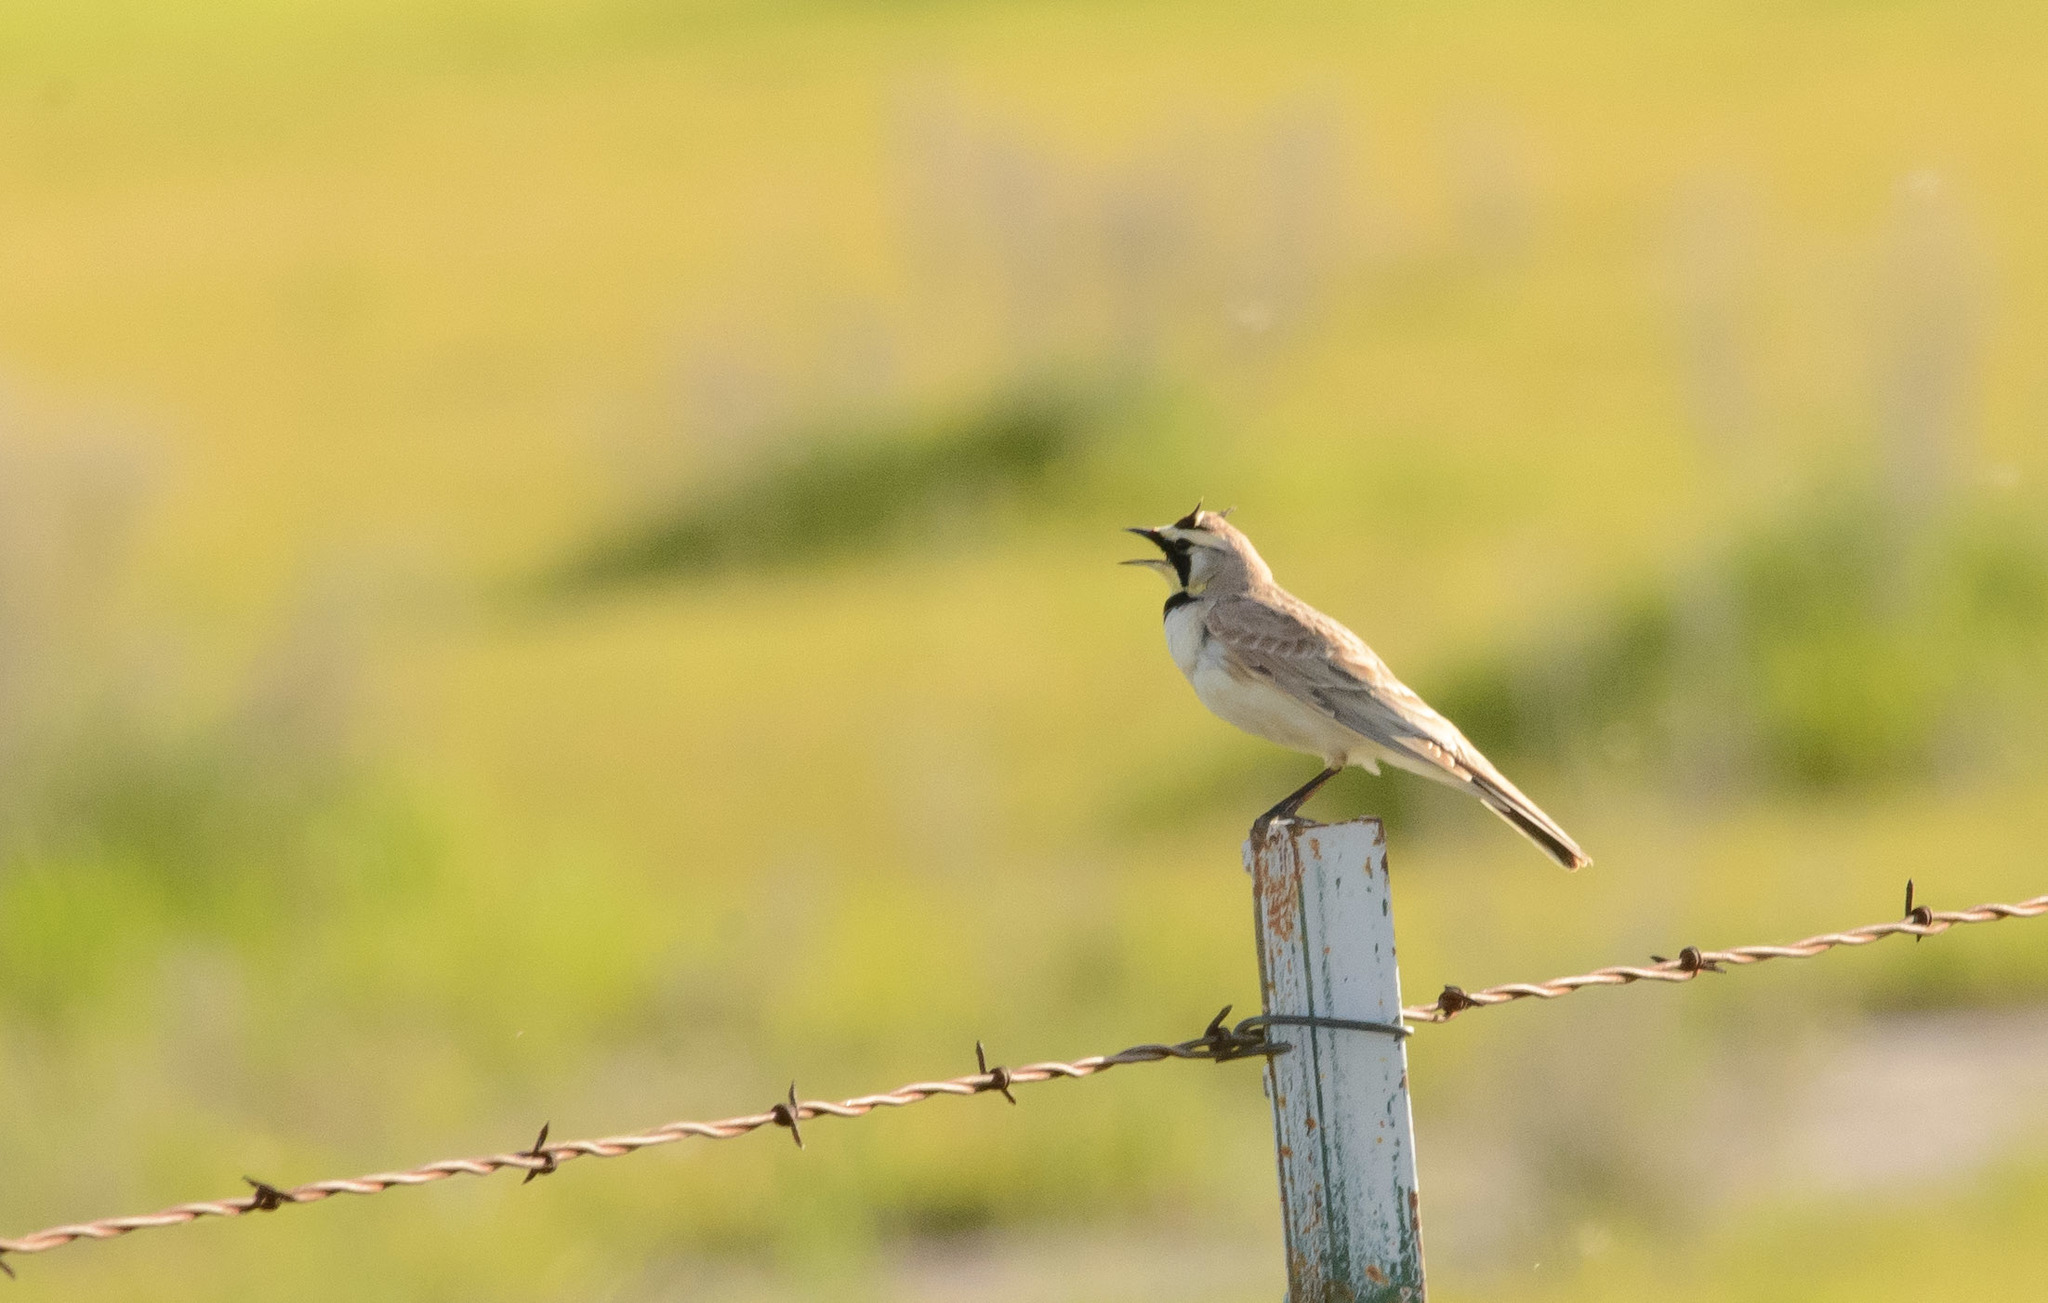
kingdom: Animalia
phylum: Chordata
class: Aves
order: Passeriformes
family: Alaudidae
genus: Eremophila
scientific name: Eremophila alpestris
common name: Horned lark
